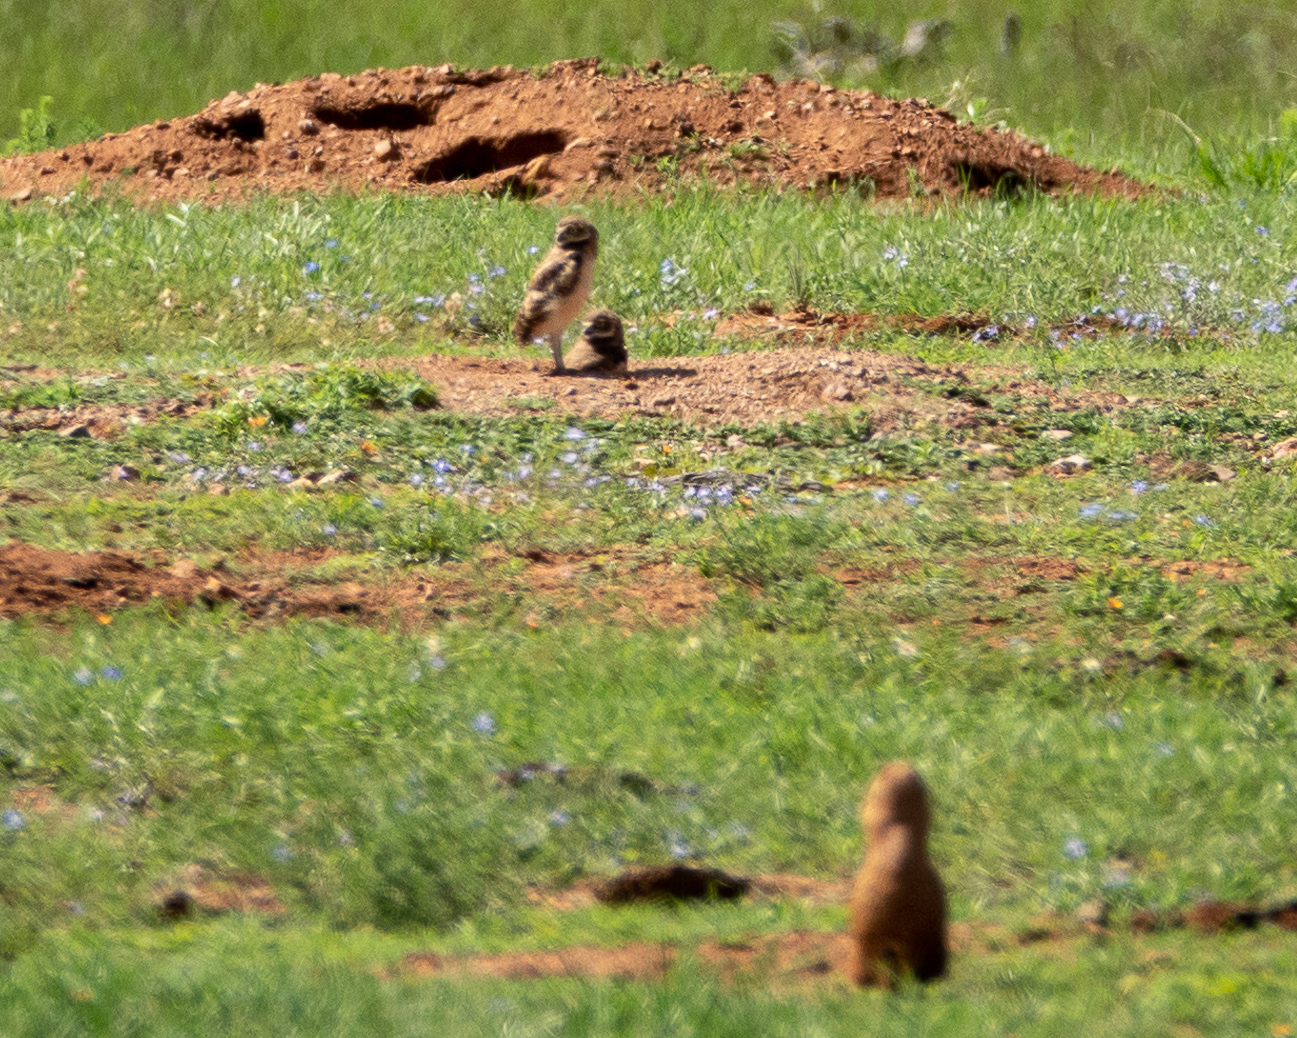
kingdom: Animalia
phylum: Chordata
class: Aves
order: Strigiformes
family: Strigidae
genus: Athene
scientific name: Athene cunicularia
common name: Burrowing owl
